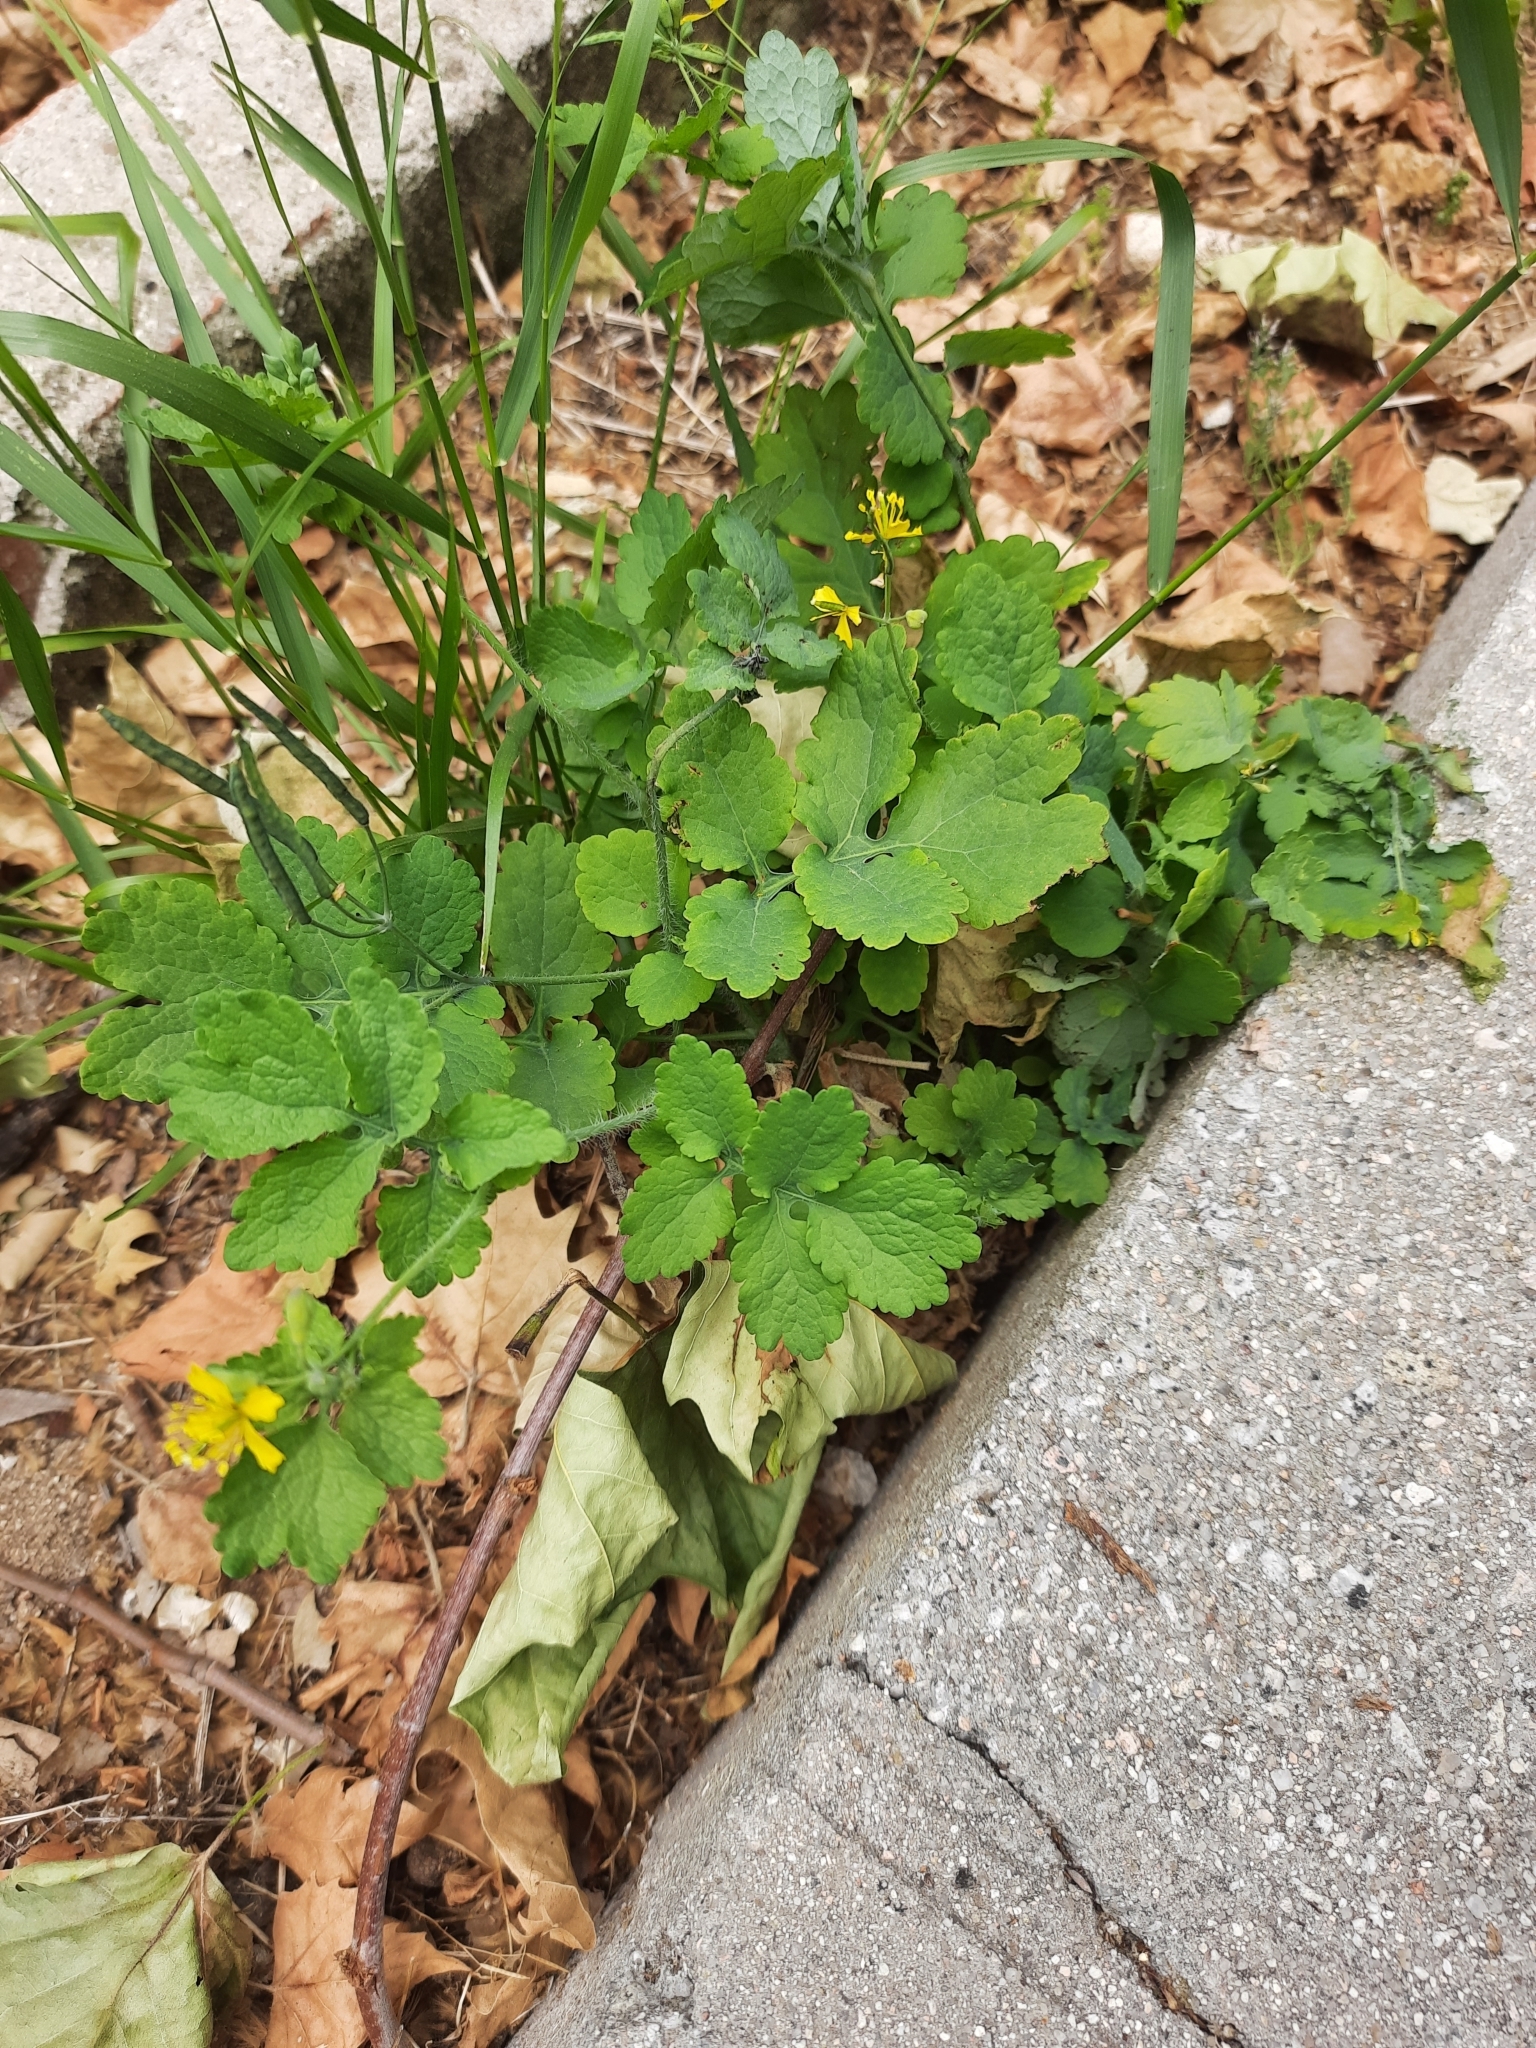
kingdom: Plantae
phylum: Tracheophyta
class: Magnoliopsida
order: Ranunculales
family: Papaveraceae
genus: Chelidonium
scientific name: Chelidonium majus
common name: Greater celandine
